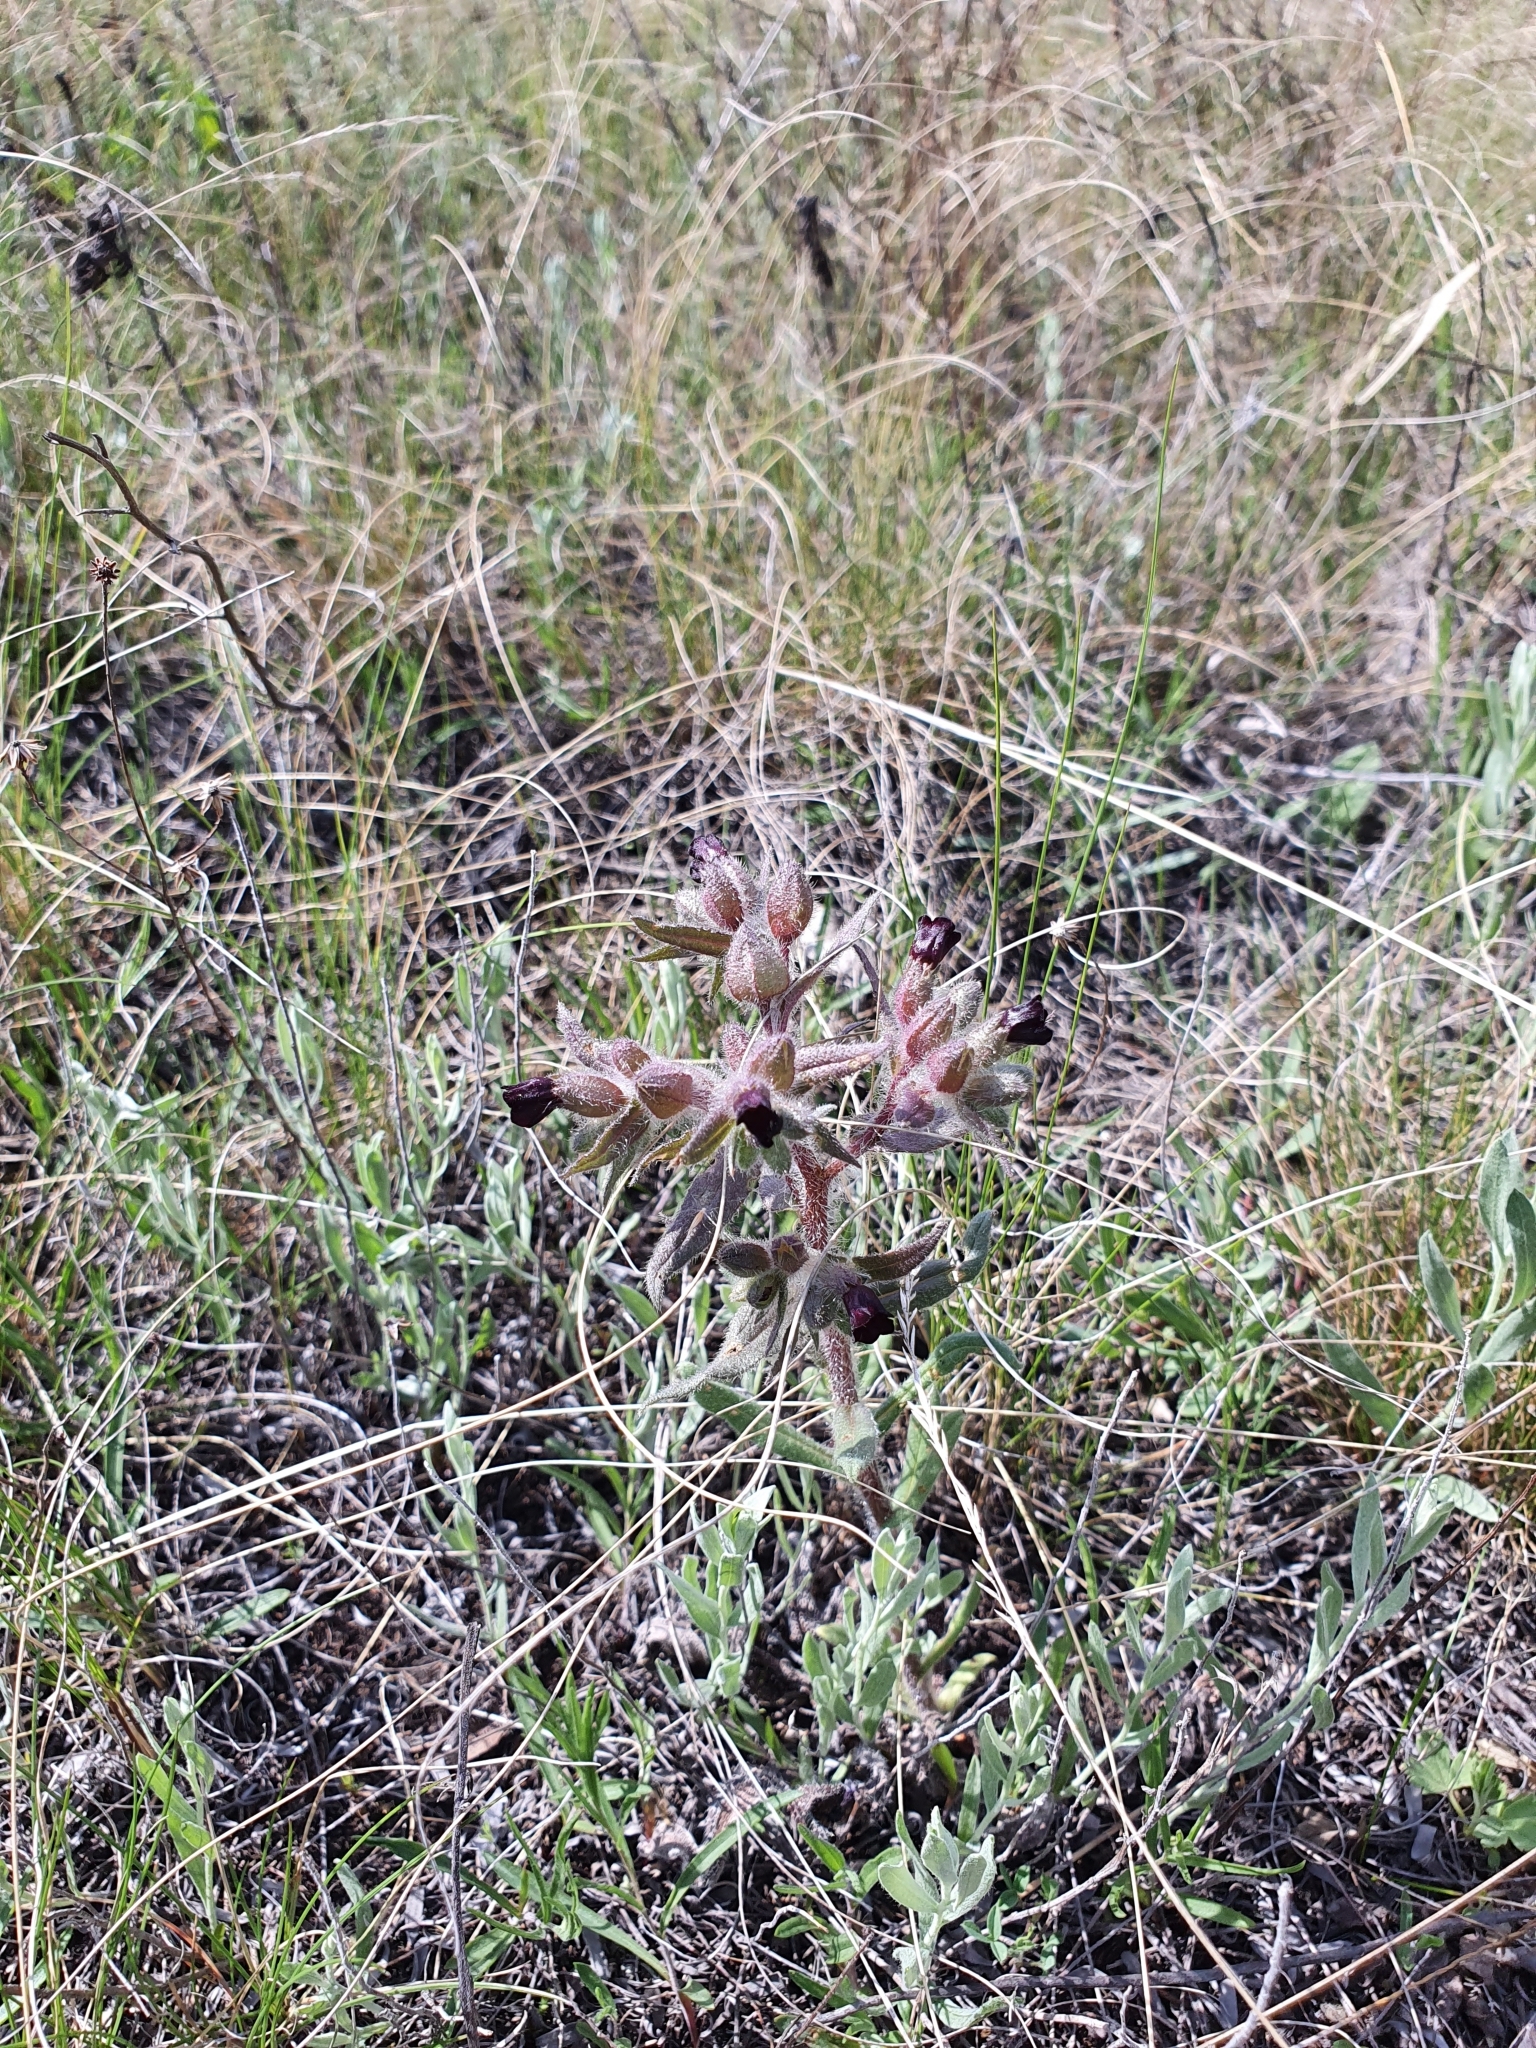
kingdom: Plantae
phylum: Tracheophyta
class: Magnoliopsida
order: Boraginales
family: Boraginaceae
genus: Nonea
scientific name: Nonea pulla
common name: Brown nonea
